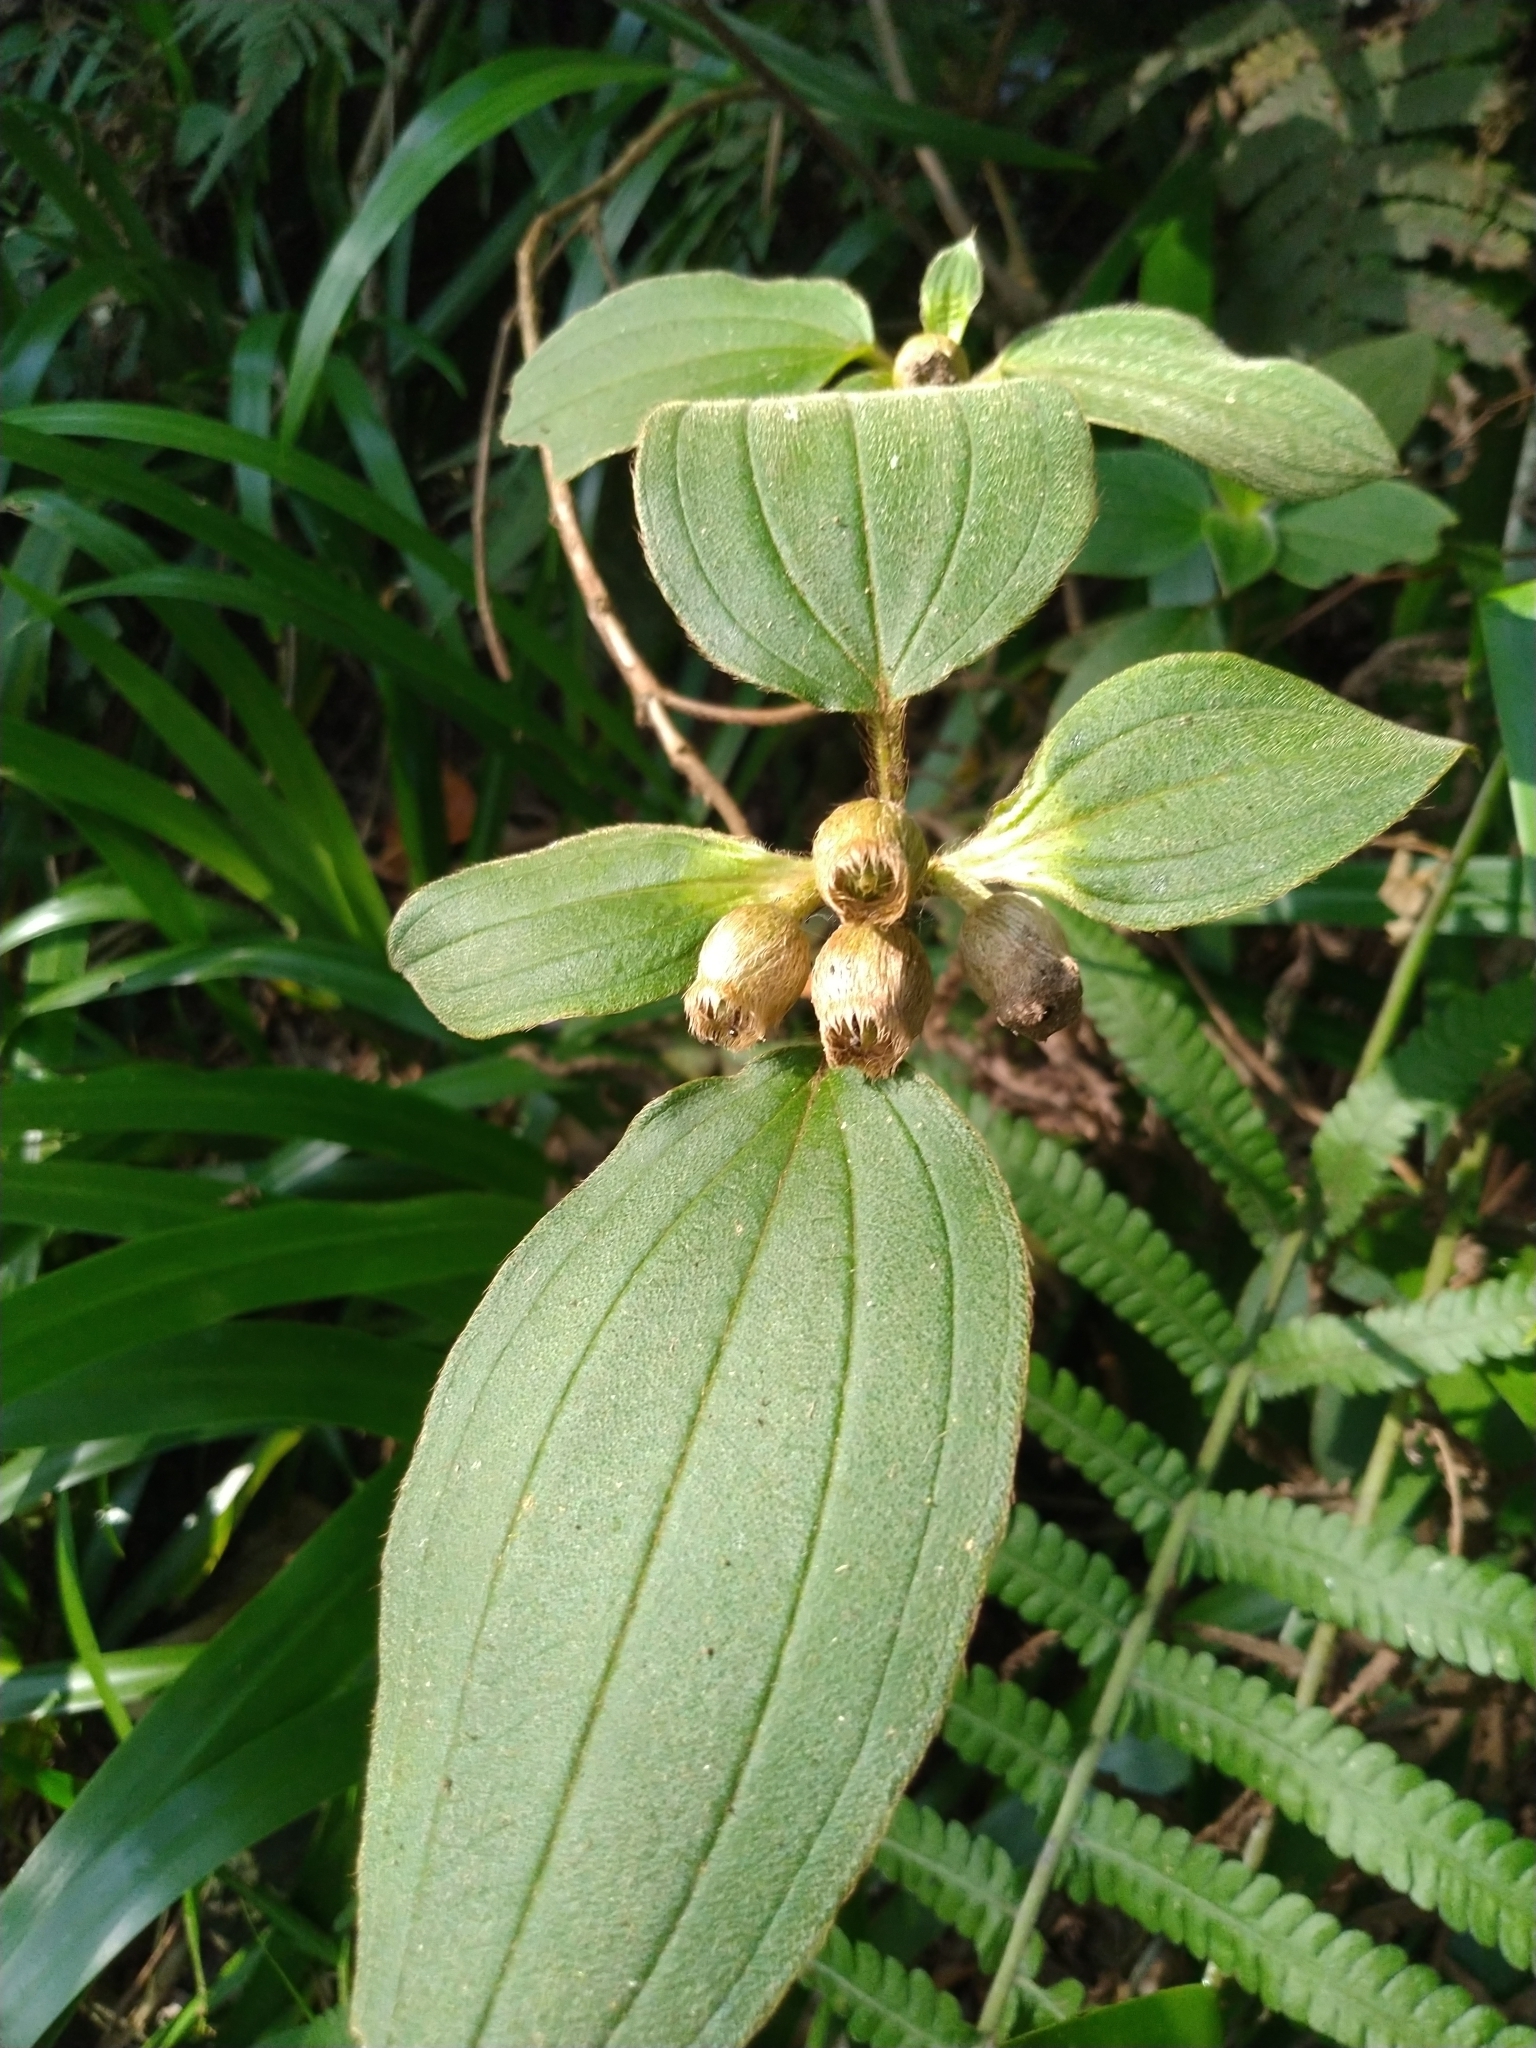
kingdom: Plantae
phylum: Tracheophyta
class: Magnoliopsida
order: Myrtales
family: Melastomataceae
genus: Melastoma
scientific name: Melastoma malabathricum
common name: Indian-rhododendron
